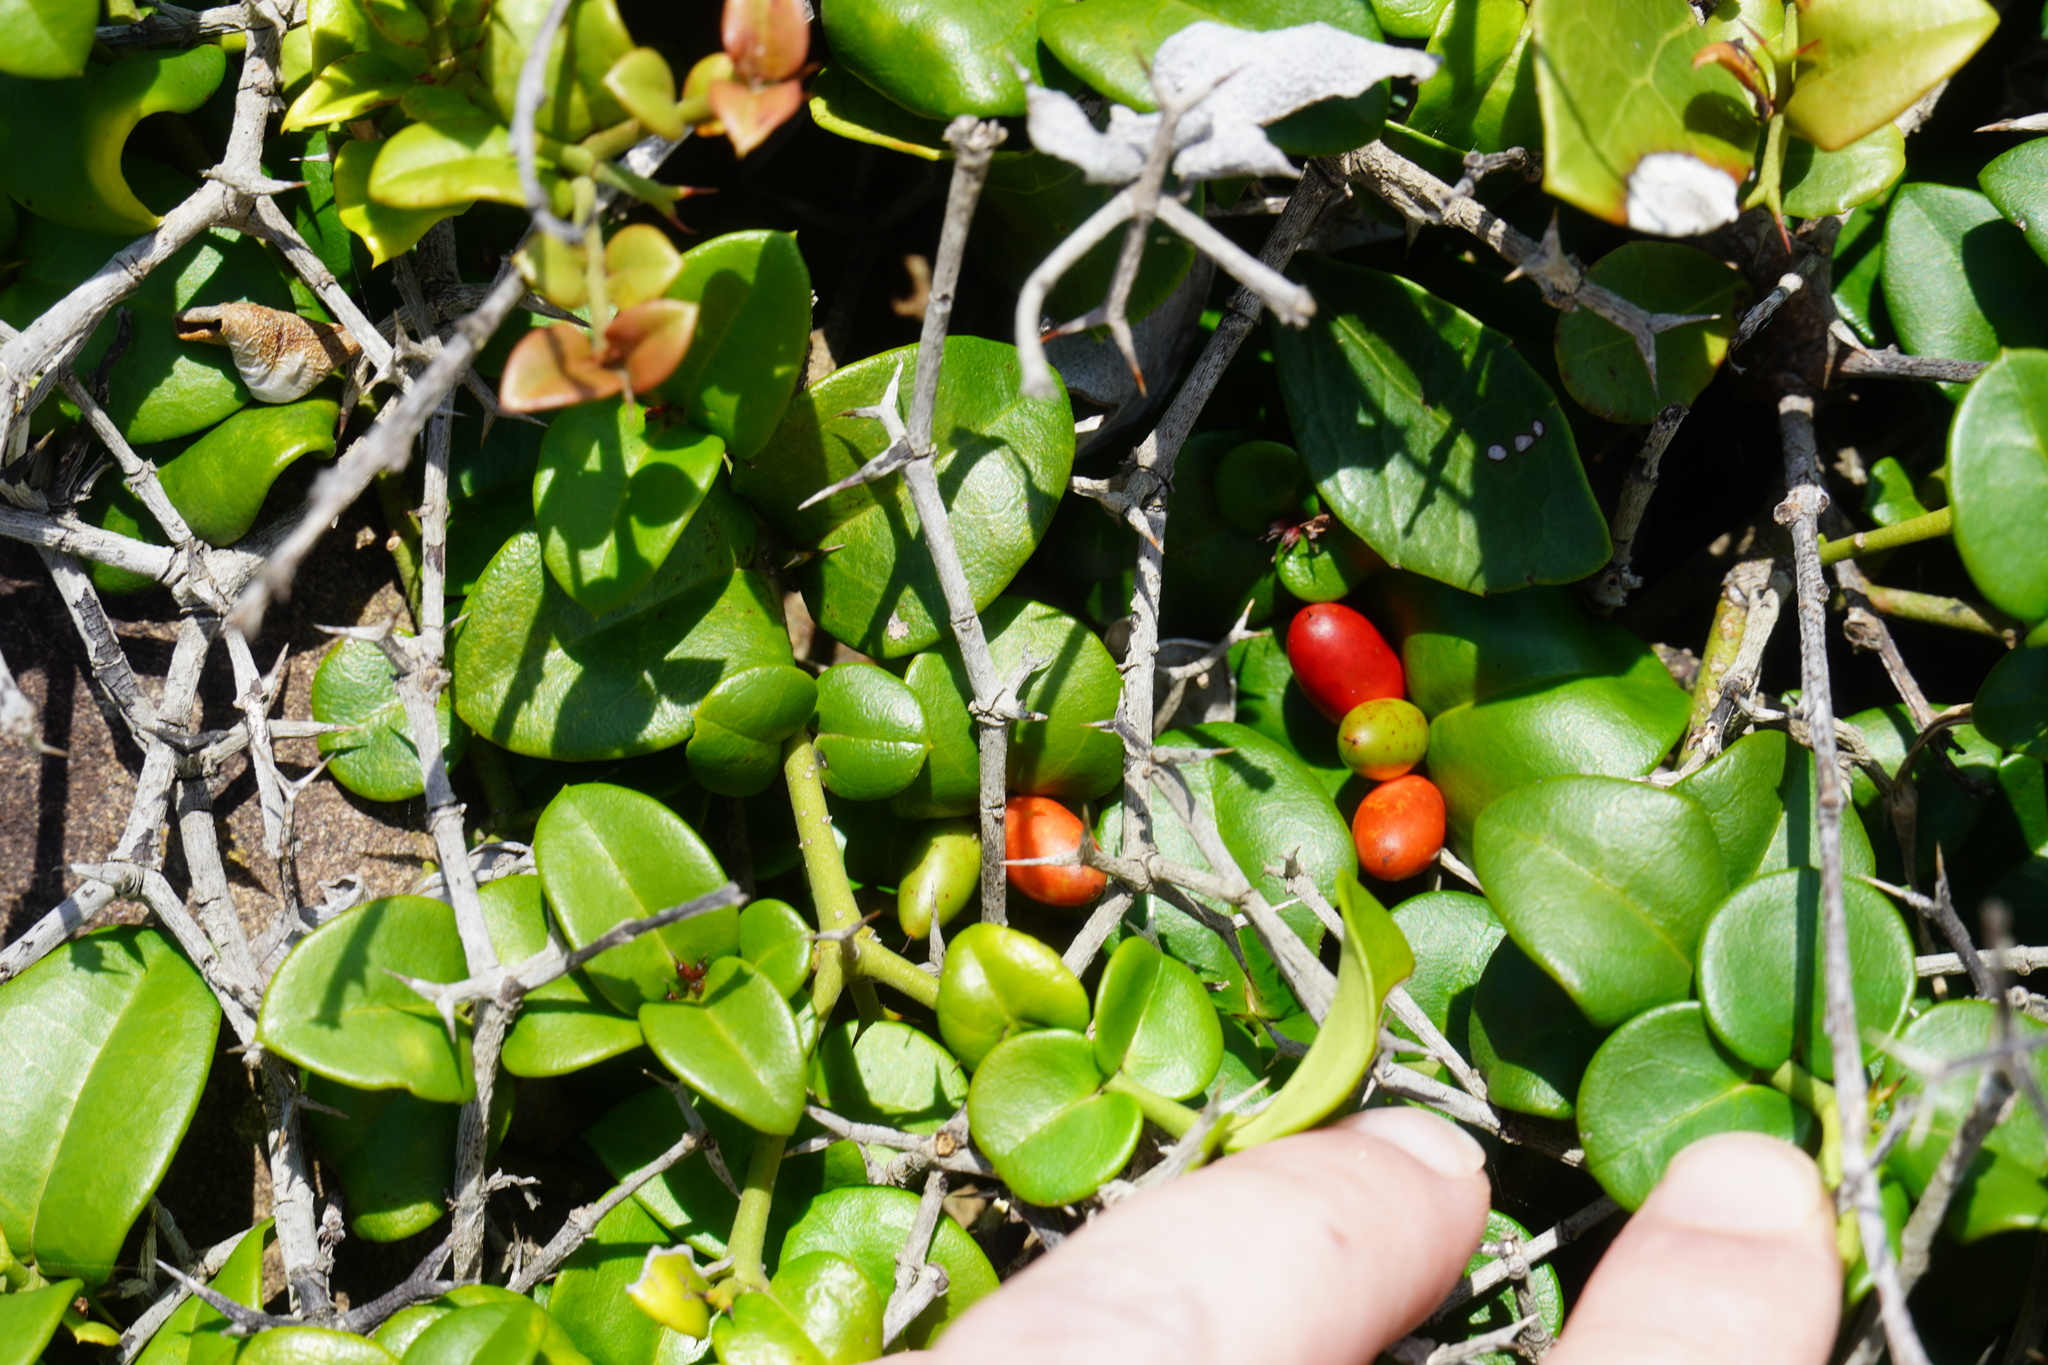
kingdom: Plantae
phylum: Tracheophyta
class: Magnoliopsida
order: Gentianales
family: Apocynaceae
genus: Carissa
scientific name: Carissa bispinosa
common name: Forest num-num
